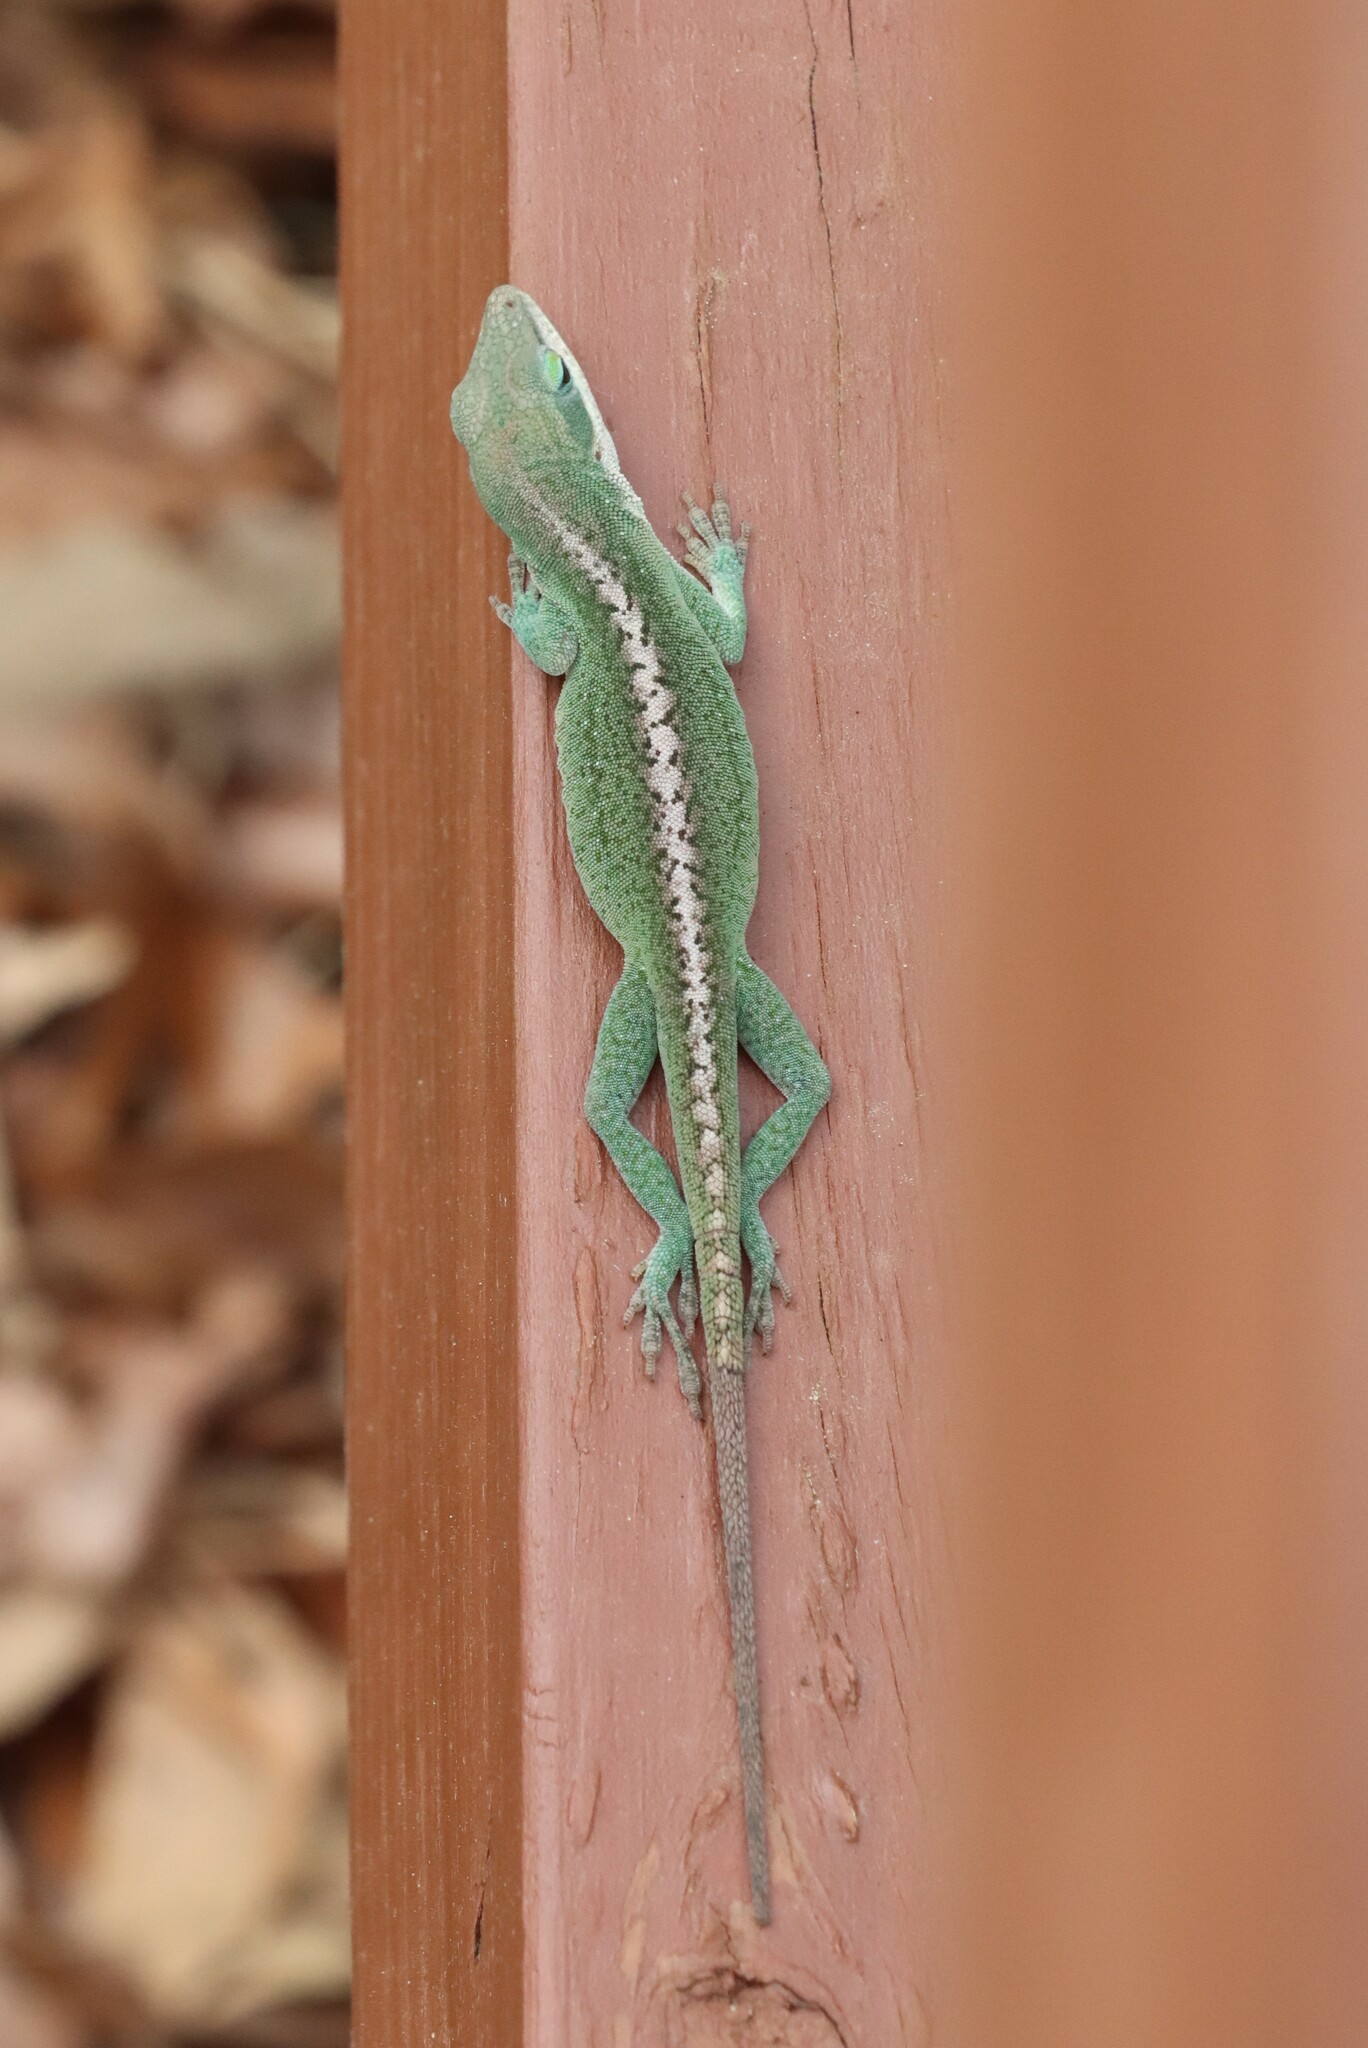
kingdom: Animalia
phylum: Chordata
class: Squamata
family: Dactyloidae
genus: Anolis
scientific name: Anolis carolinensis
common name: Green anole
